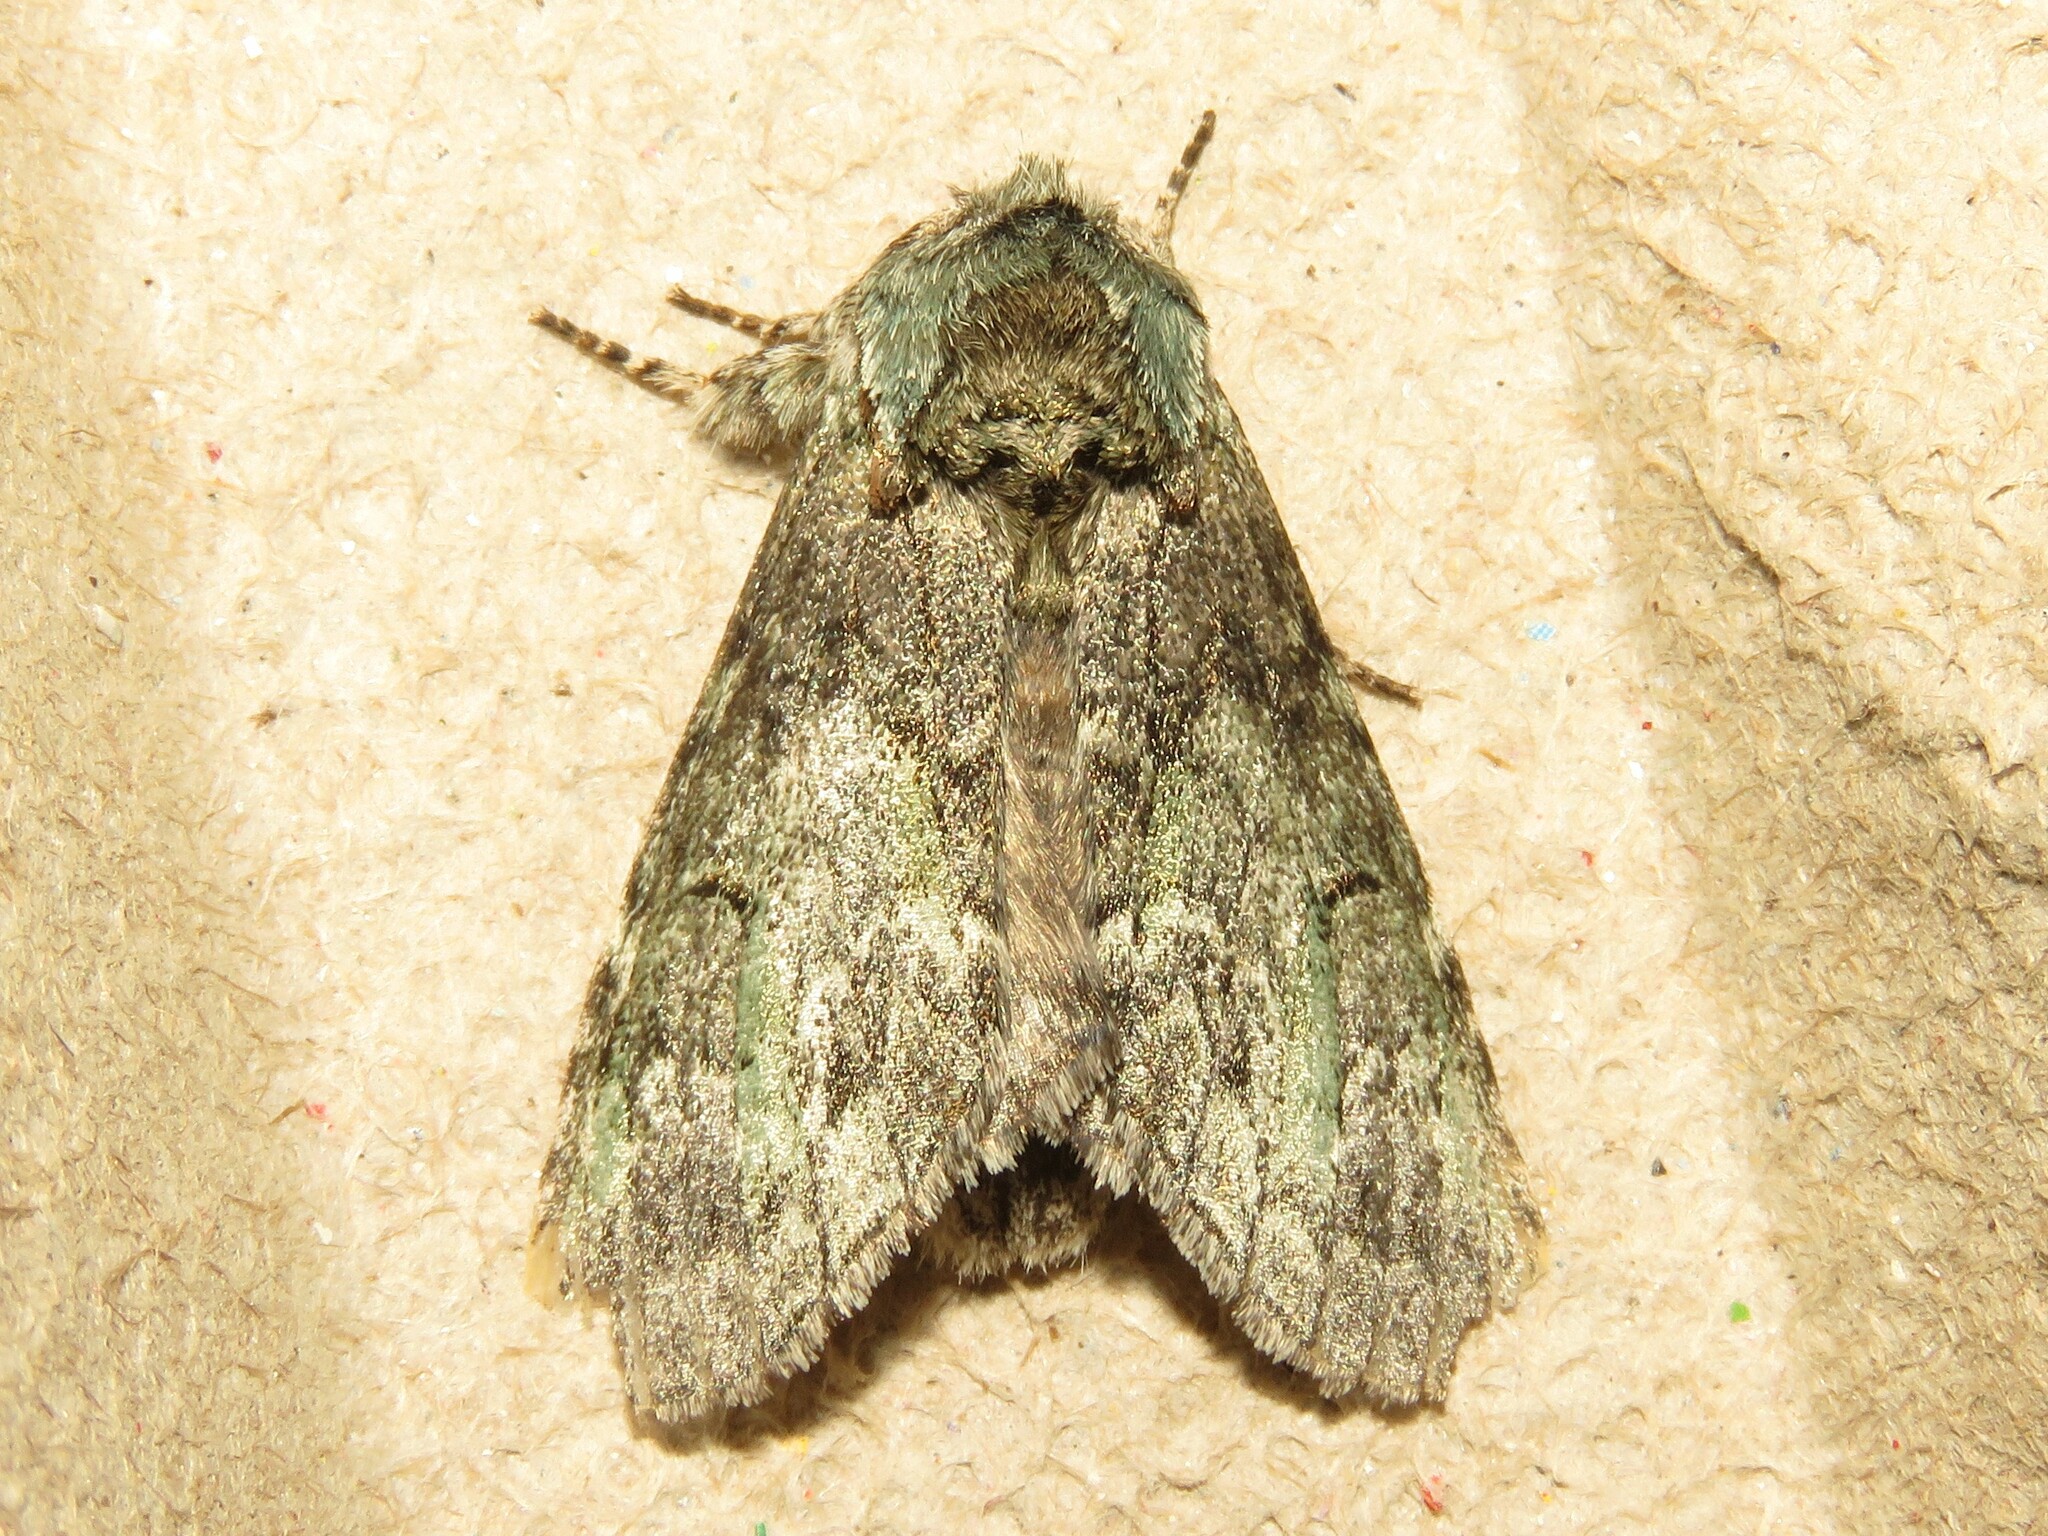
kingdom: Animalia
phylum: Arthropoda
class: Insecta
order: Lepidoptera
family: Notodontidae
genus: Macrurocampa
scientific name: Macrurocampa marthesia
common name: Mottled prominent
